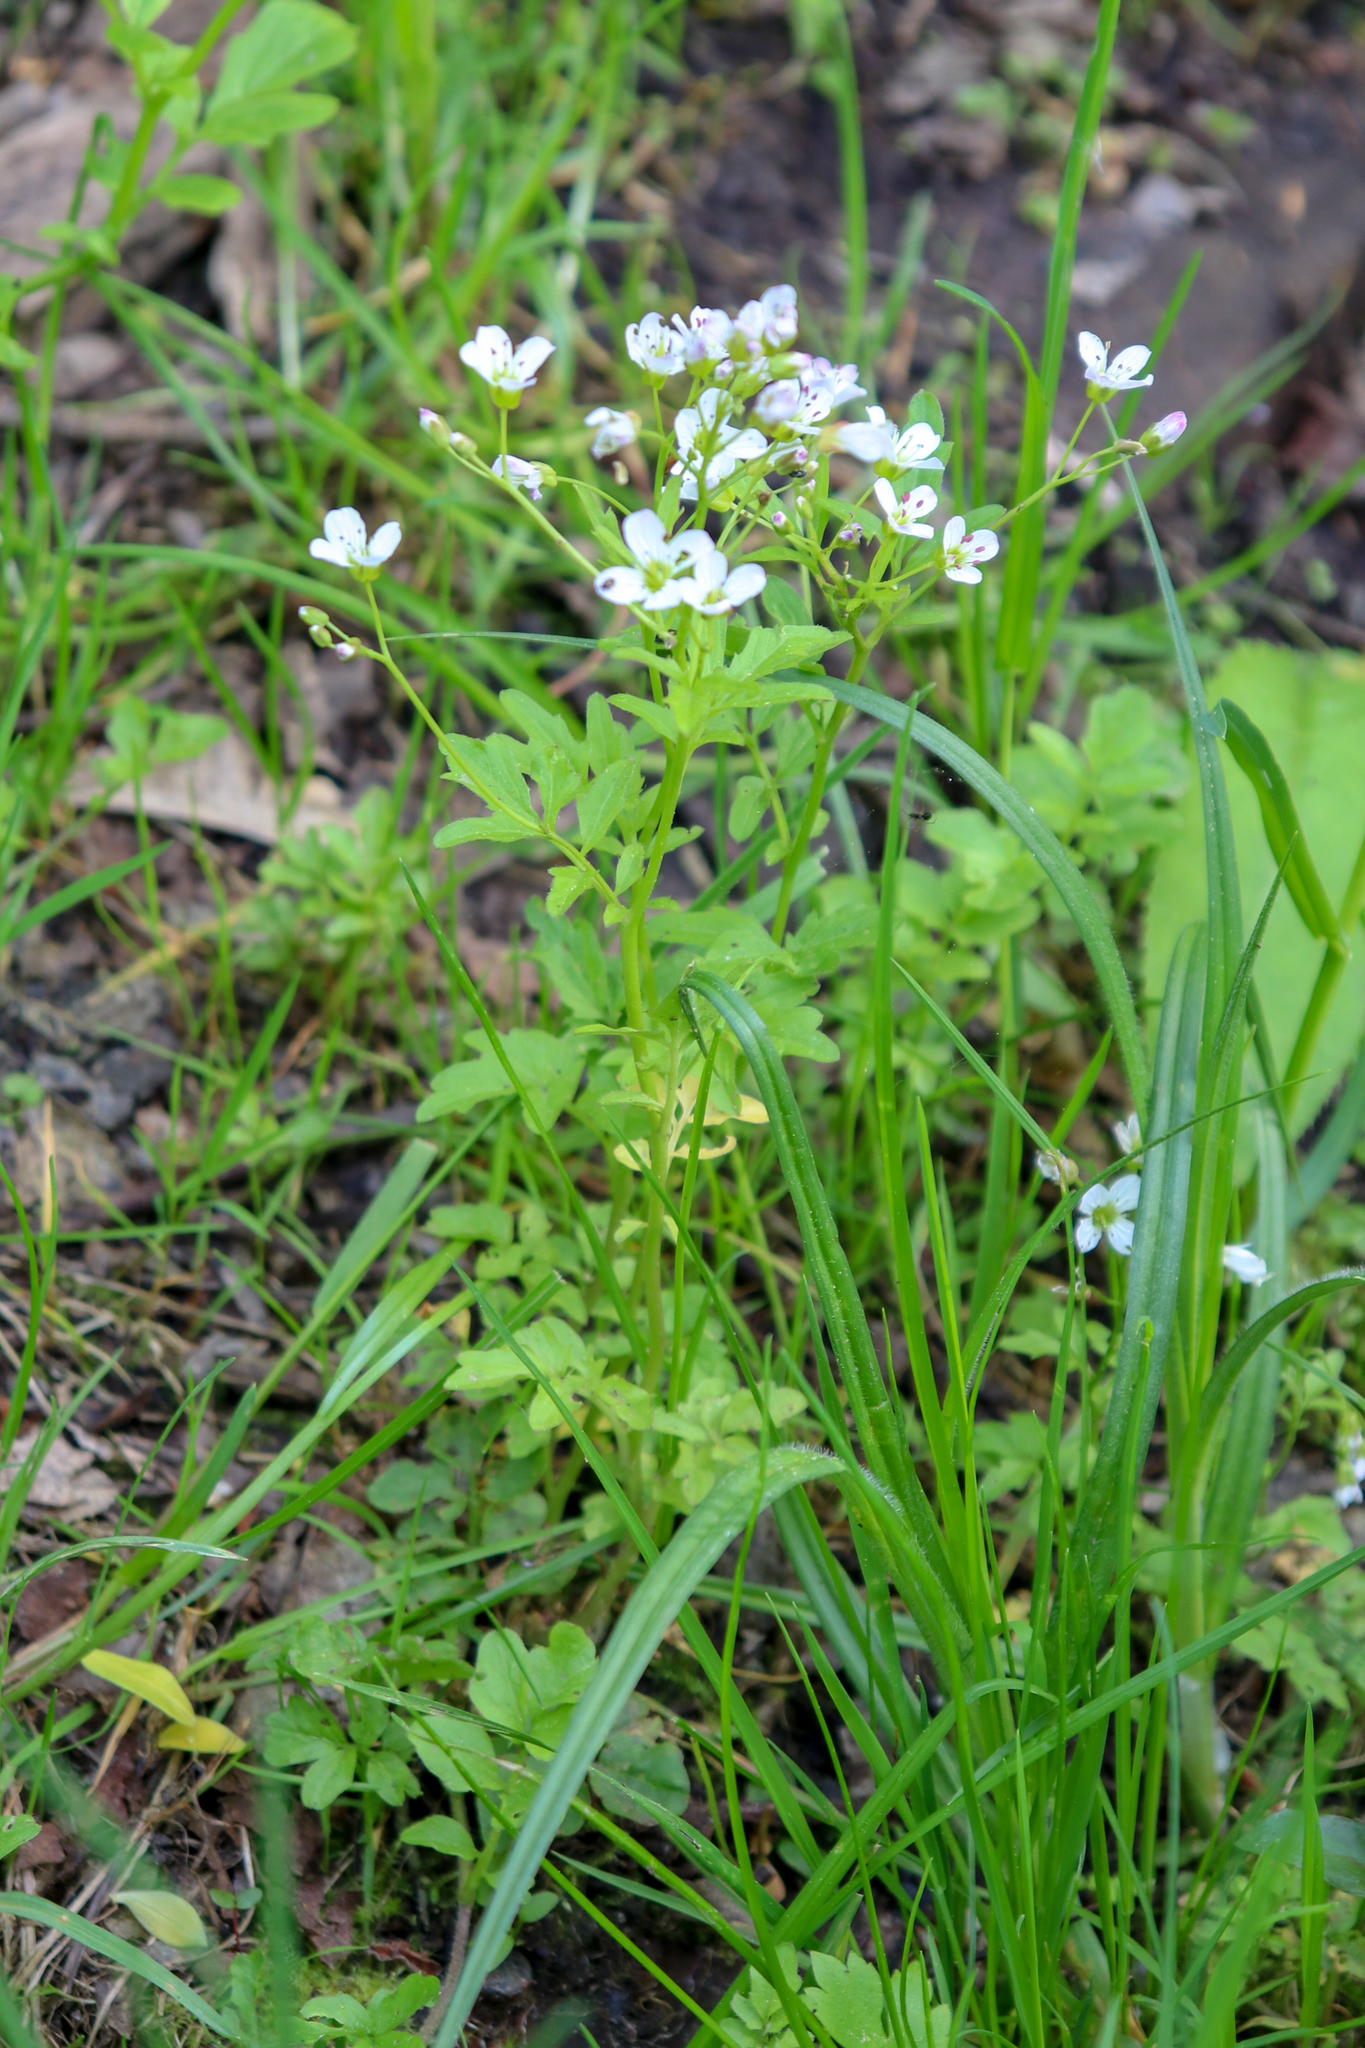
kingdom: Plantae
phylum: Tracheophyta
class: Magnoliopsida
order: Brassicales
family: Brassicaceae
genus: Cardamine
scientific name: Cardamine amara
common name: Large bitter-cress
